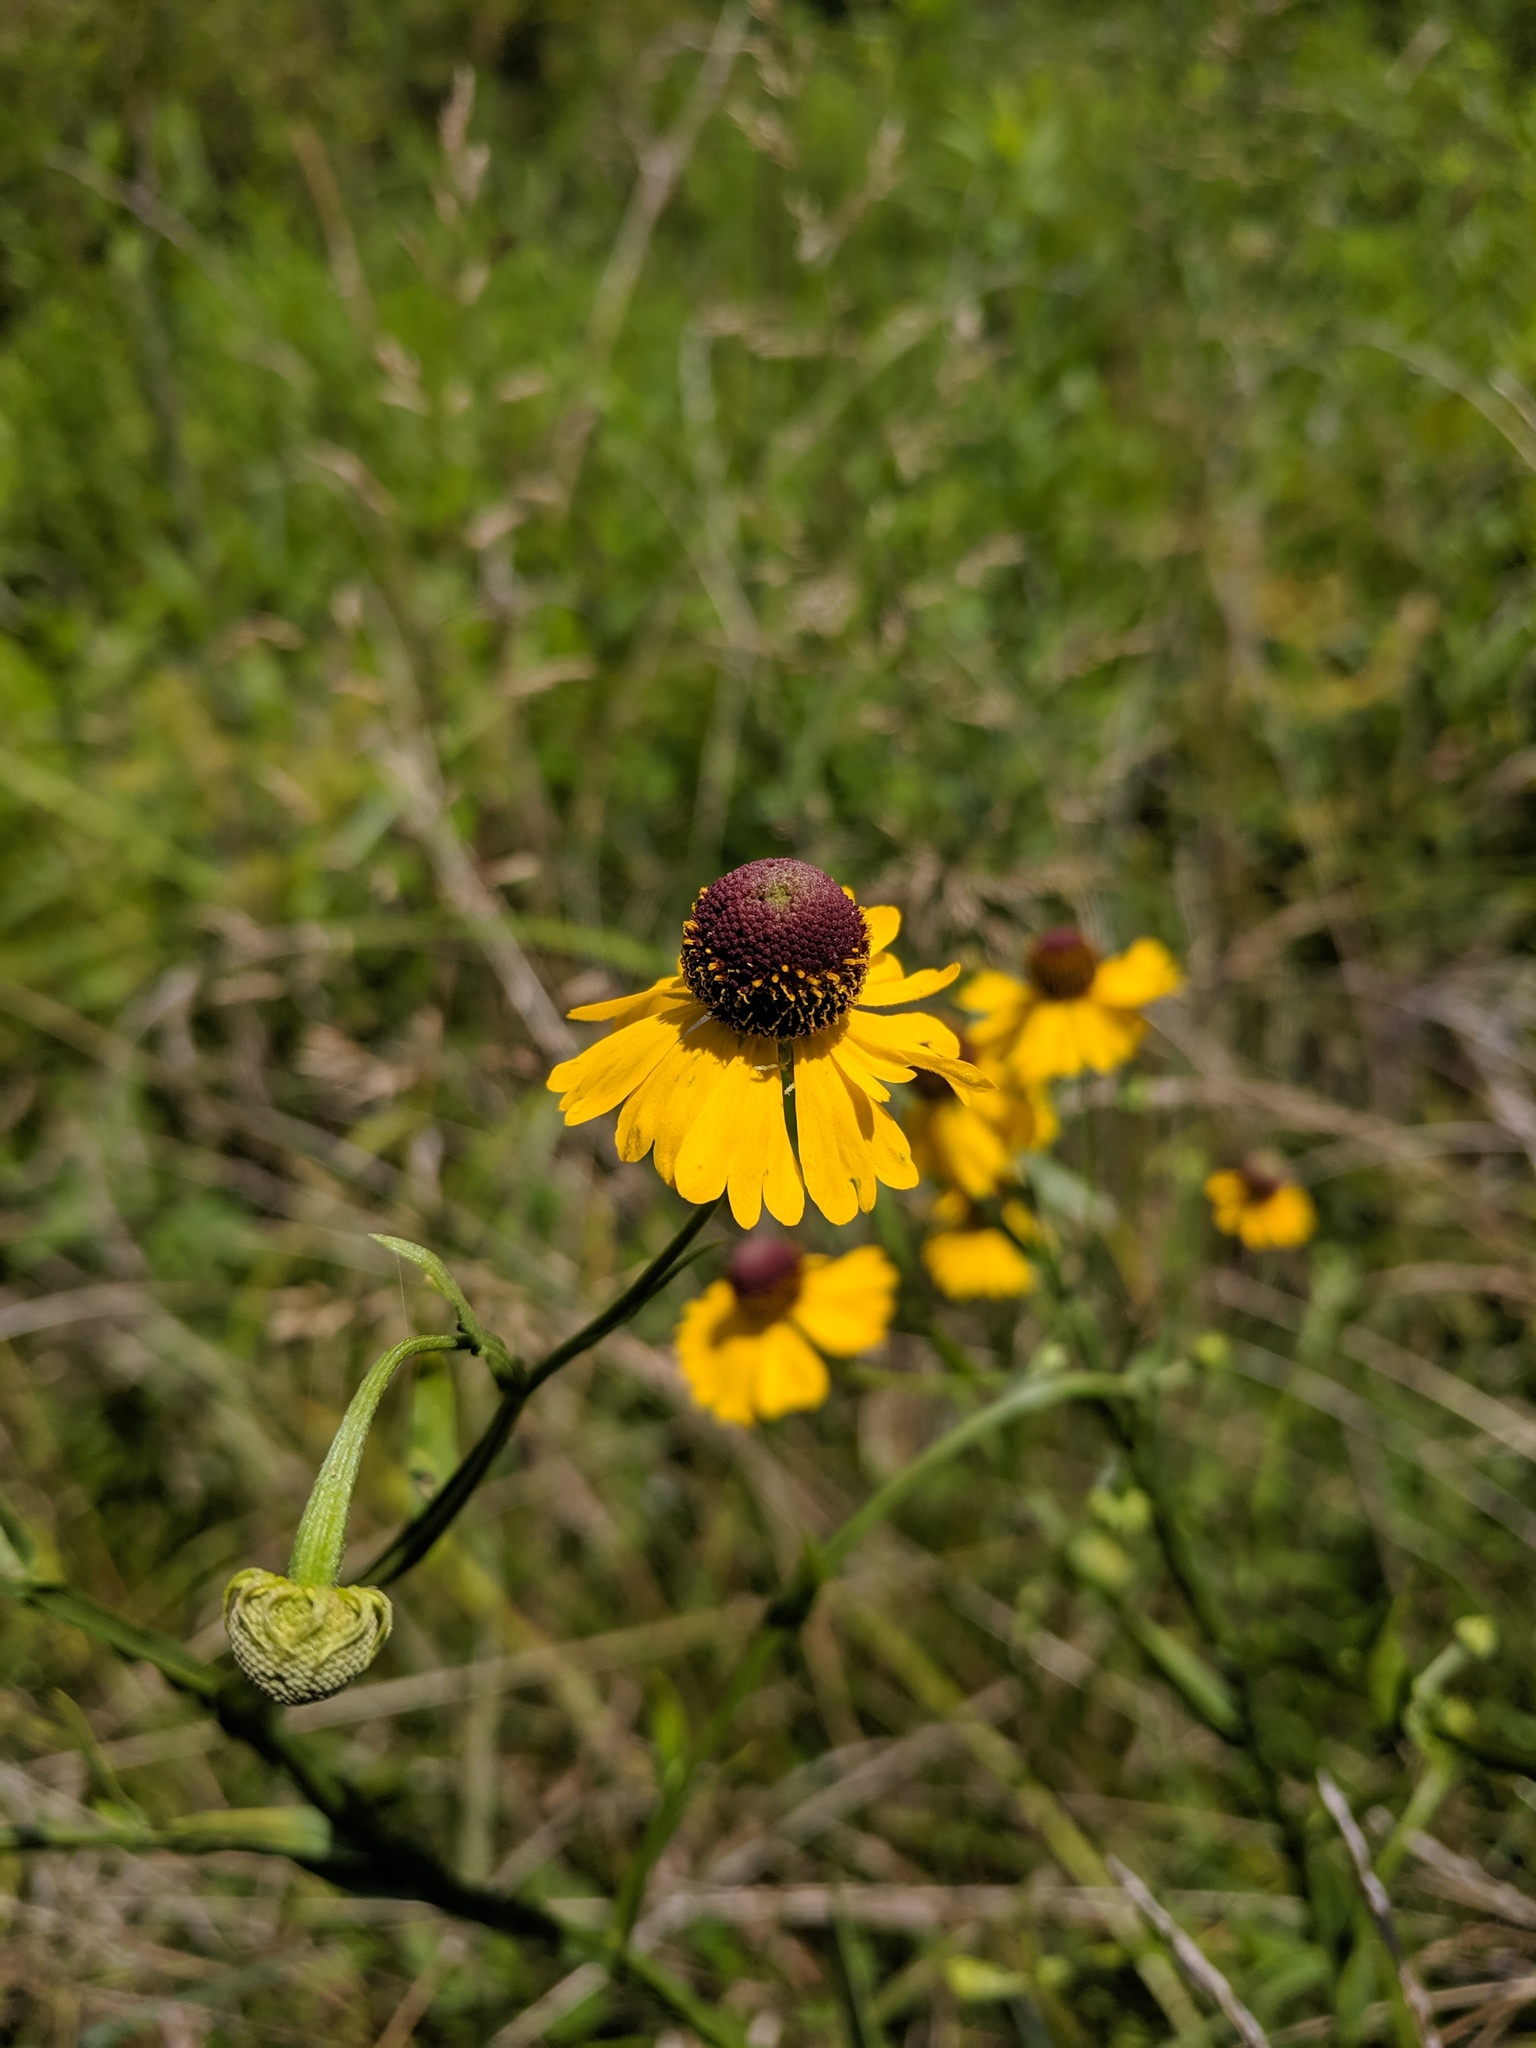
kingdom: Plantae
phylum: Tracheophyta
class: Magnoliopsida
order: Asterales
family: Asteraceae
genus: Helenium
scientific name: Helenium flexuosum
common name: Naked-flowered sneezeweed
